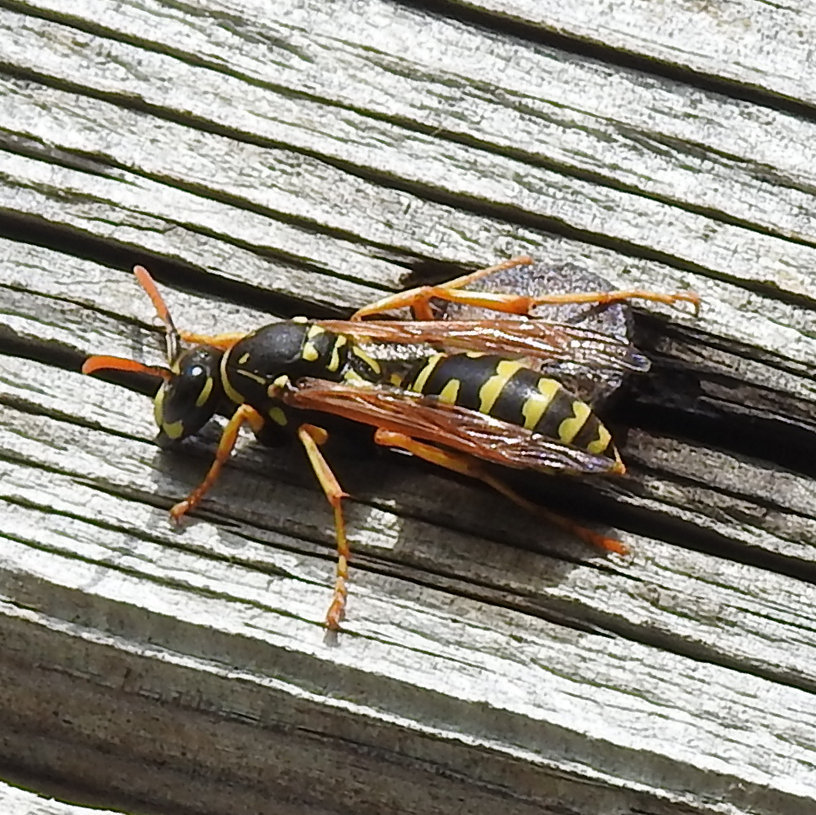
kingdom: Animalia
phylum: Arthropoda
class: Insecta
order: Hymenoptera
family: Eumenidae
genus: Polistes
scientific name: Polistes dominula
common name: Paper wasp
